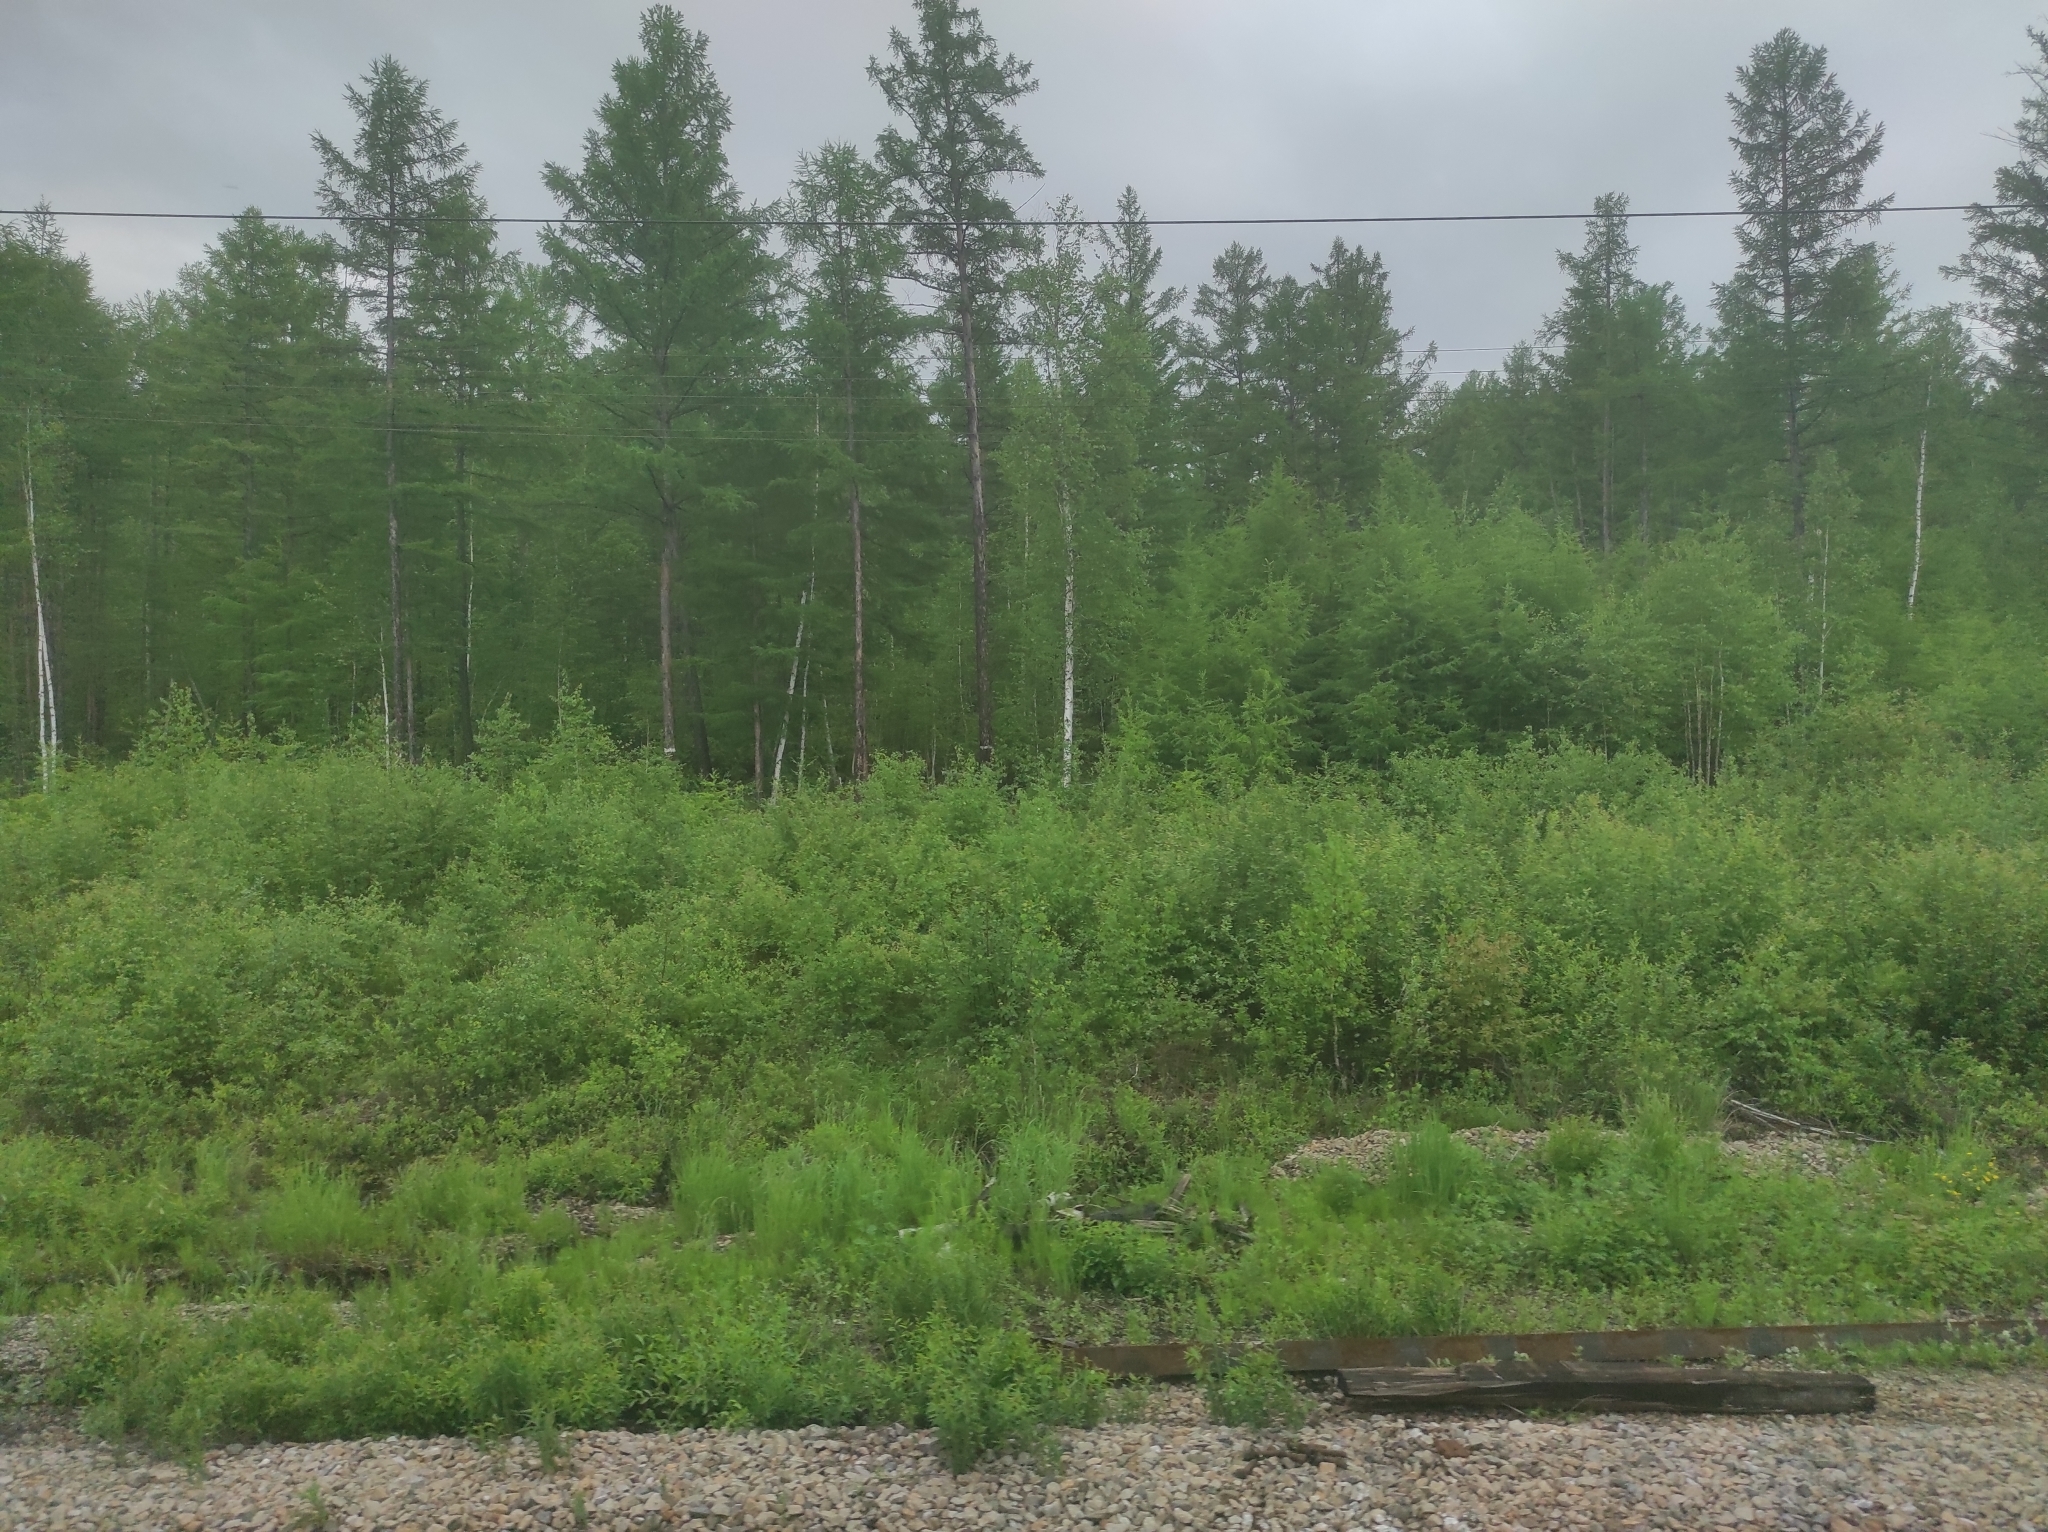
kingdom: Plantae
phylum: Tracheophyta
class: Pinopsida
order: Pinales
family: Pinaceae
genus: Larix
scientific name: Larix gmelinii
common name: Dahurian larch
